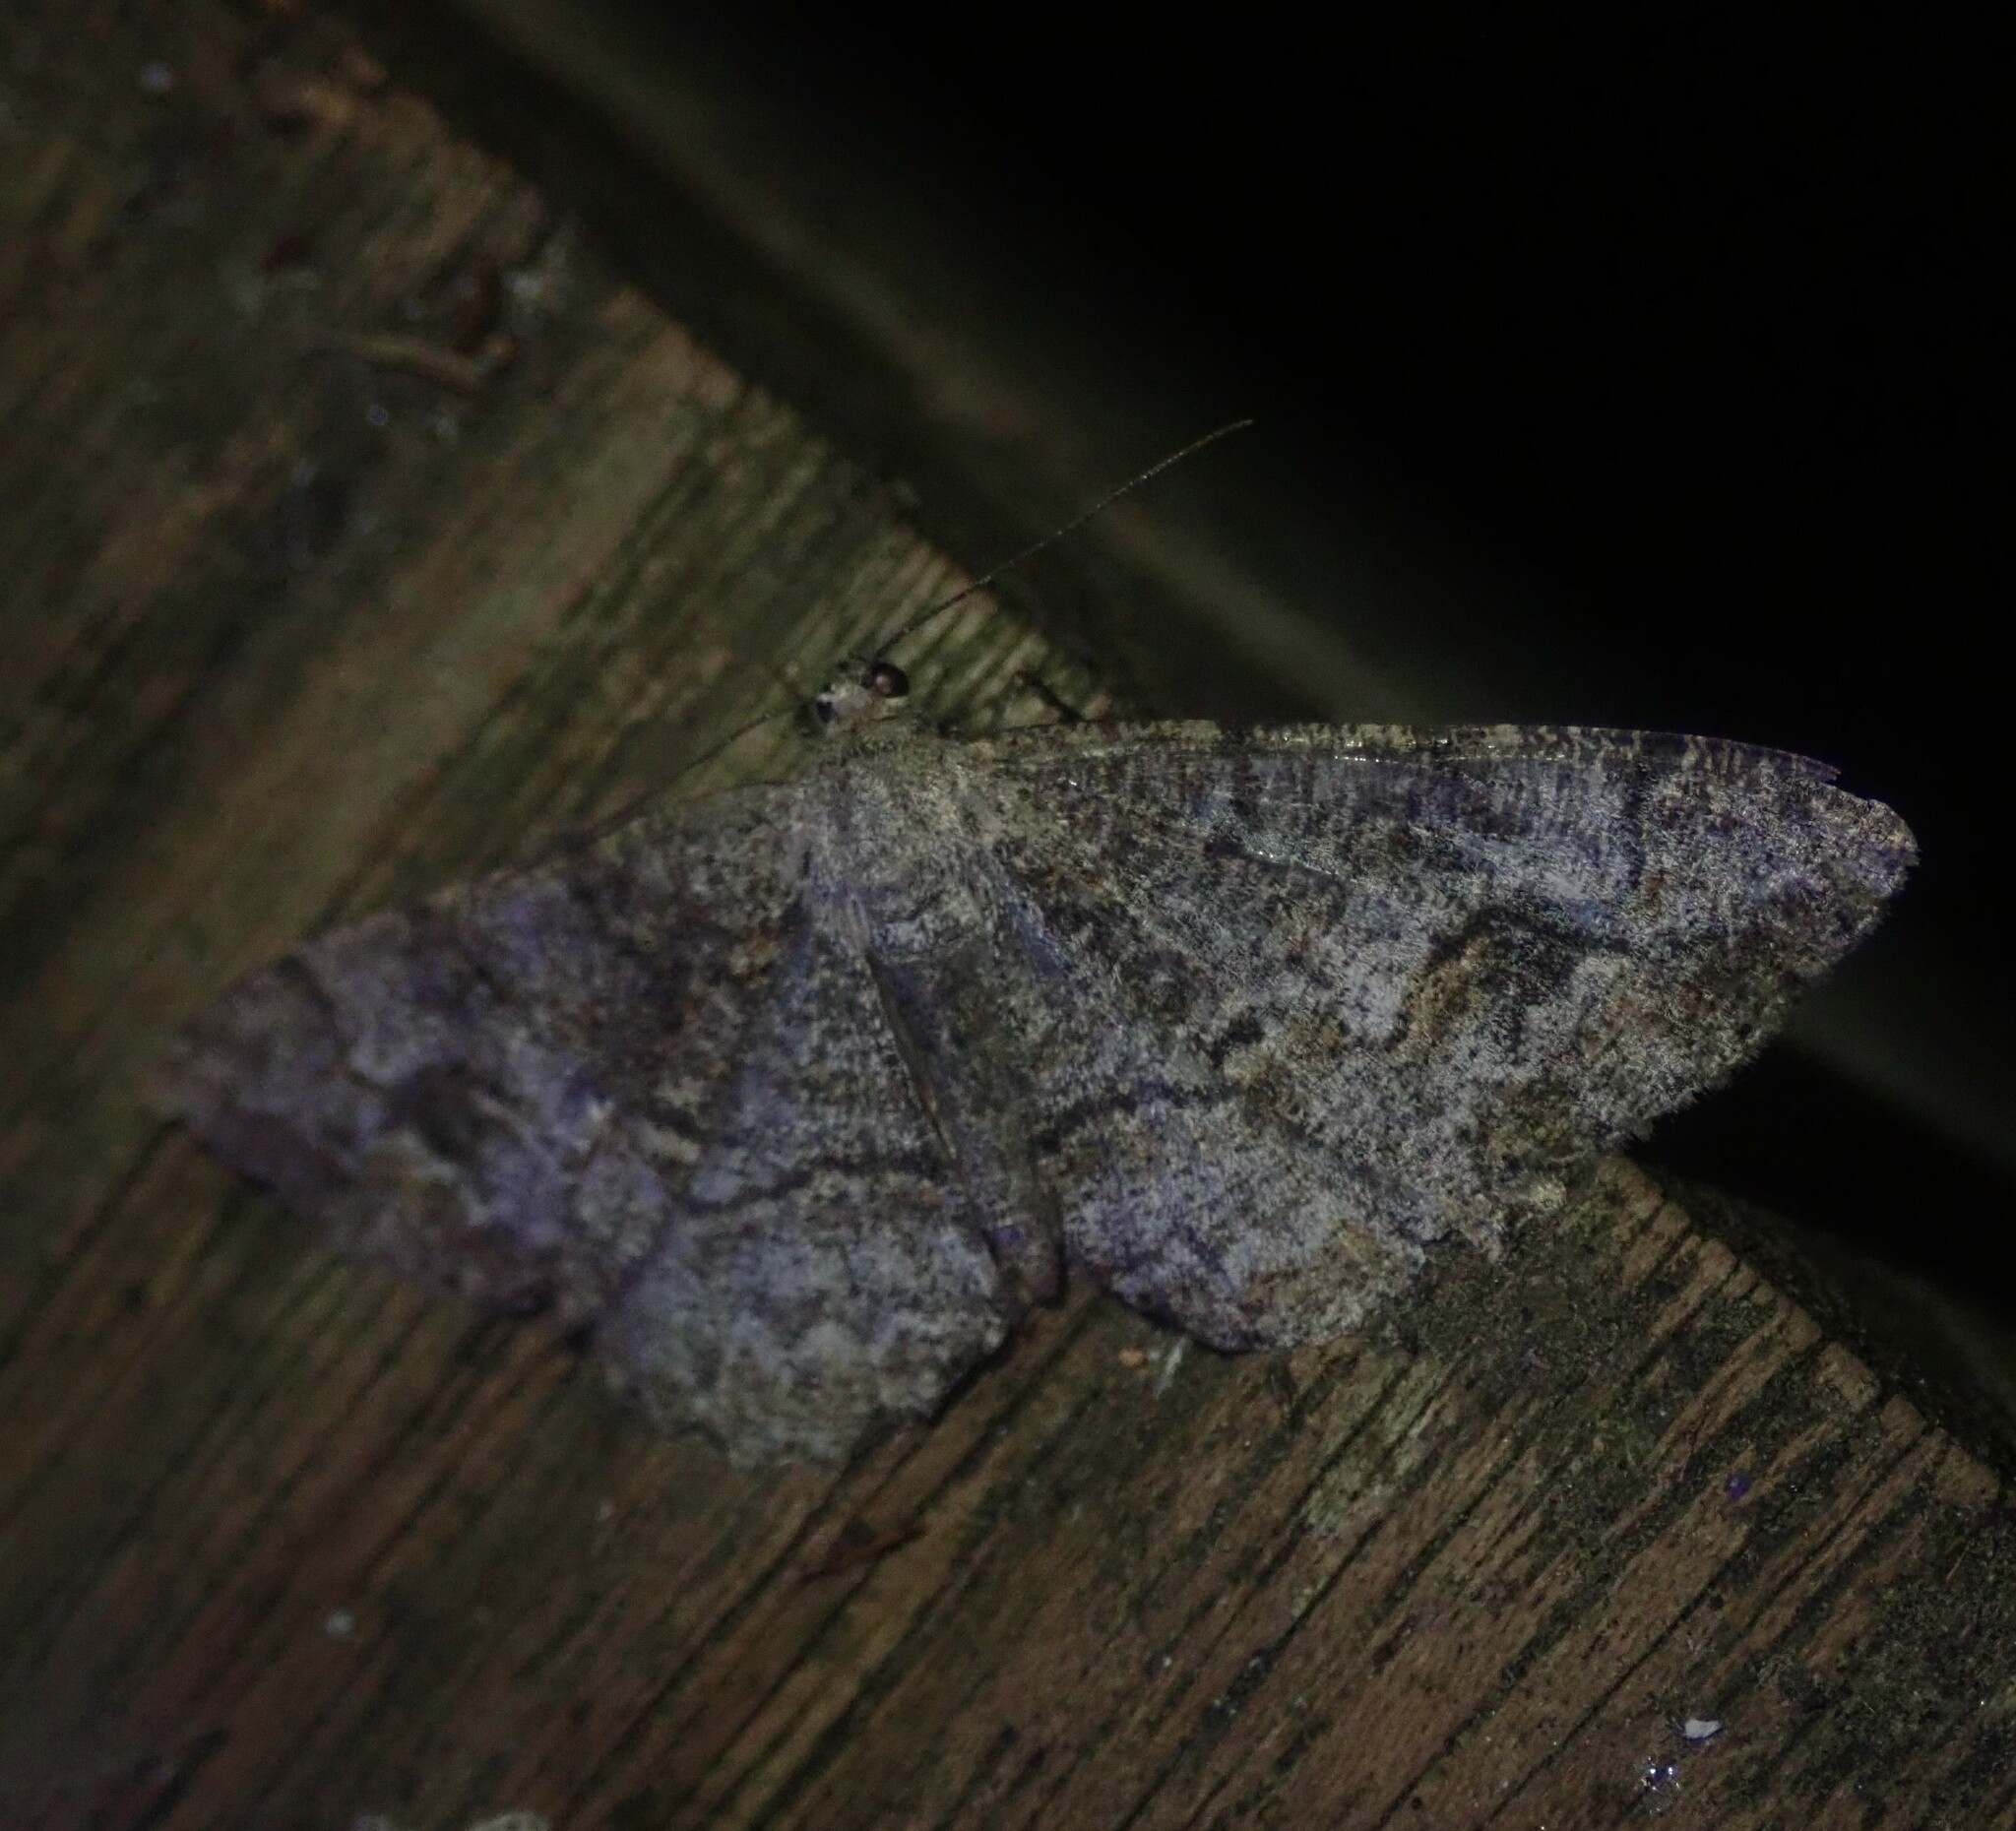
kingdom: Animalia
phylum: Arthropoda
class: Insecta
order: Lepidoptera
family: Geometridae
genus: Alcis
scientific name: Alcis repandata
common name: Mottled beauty
